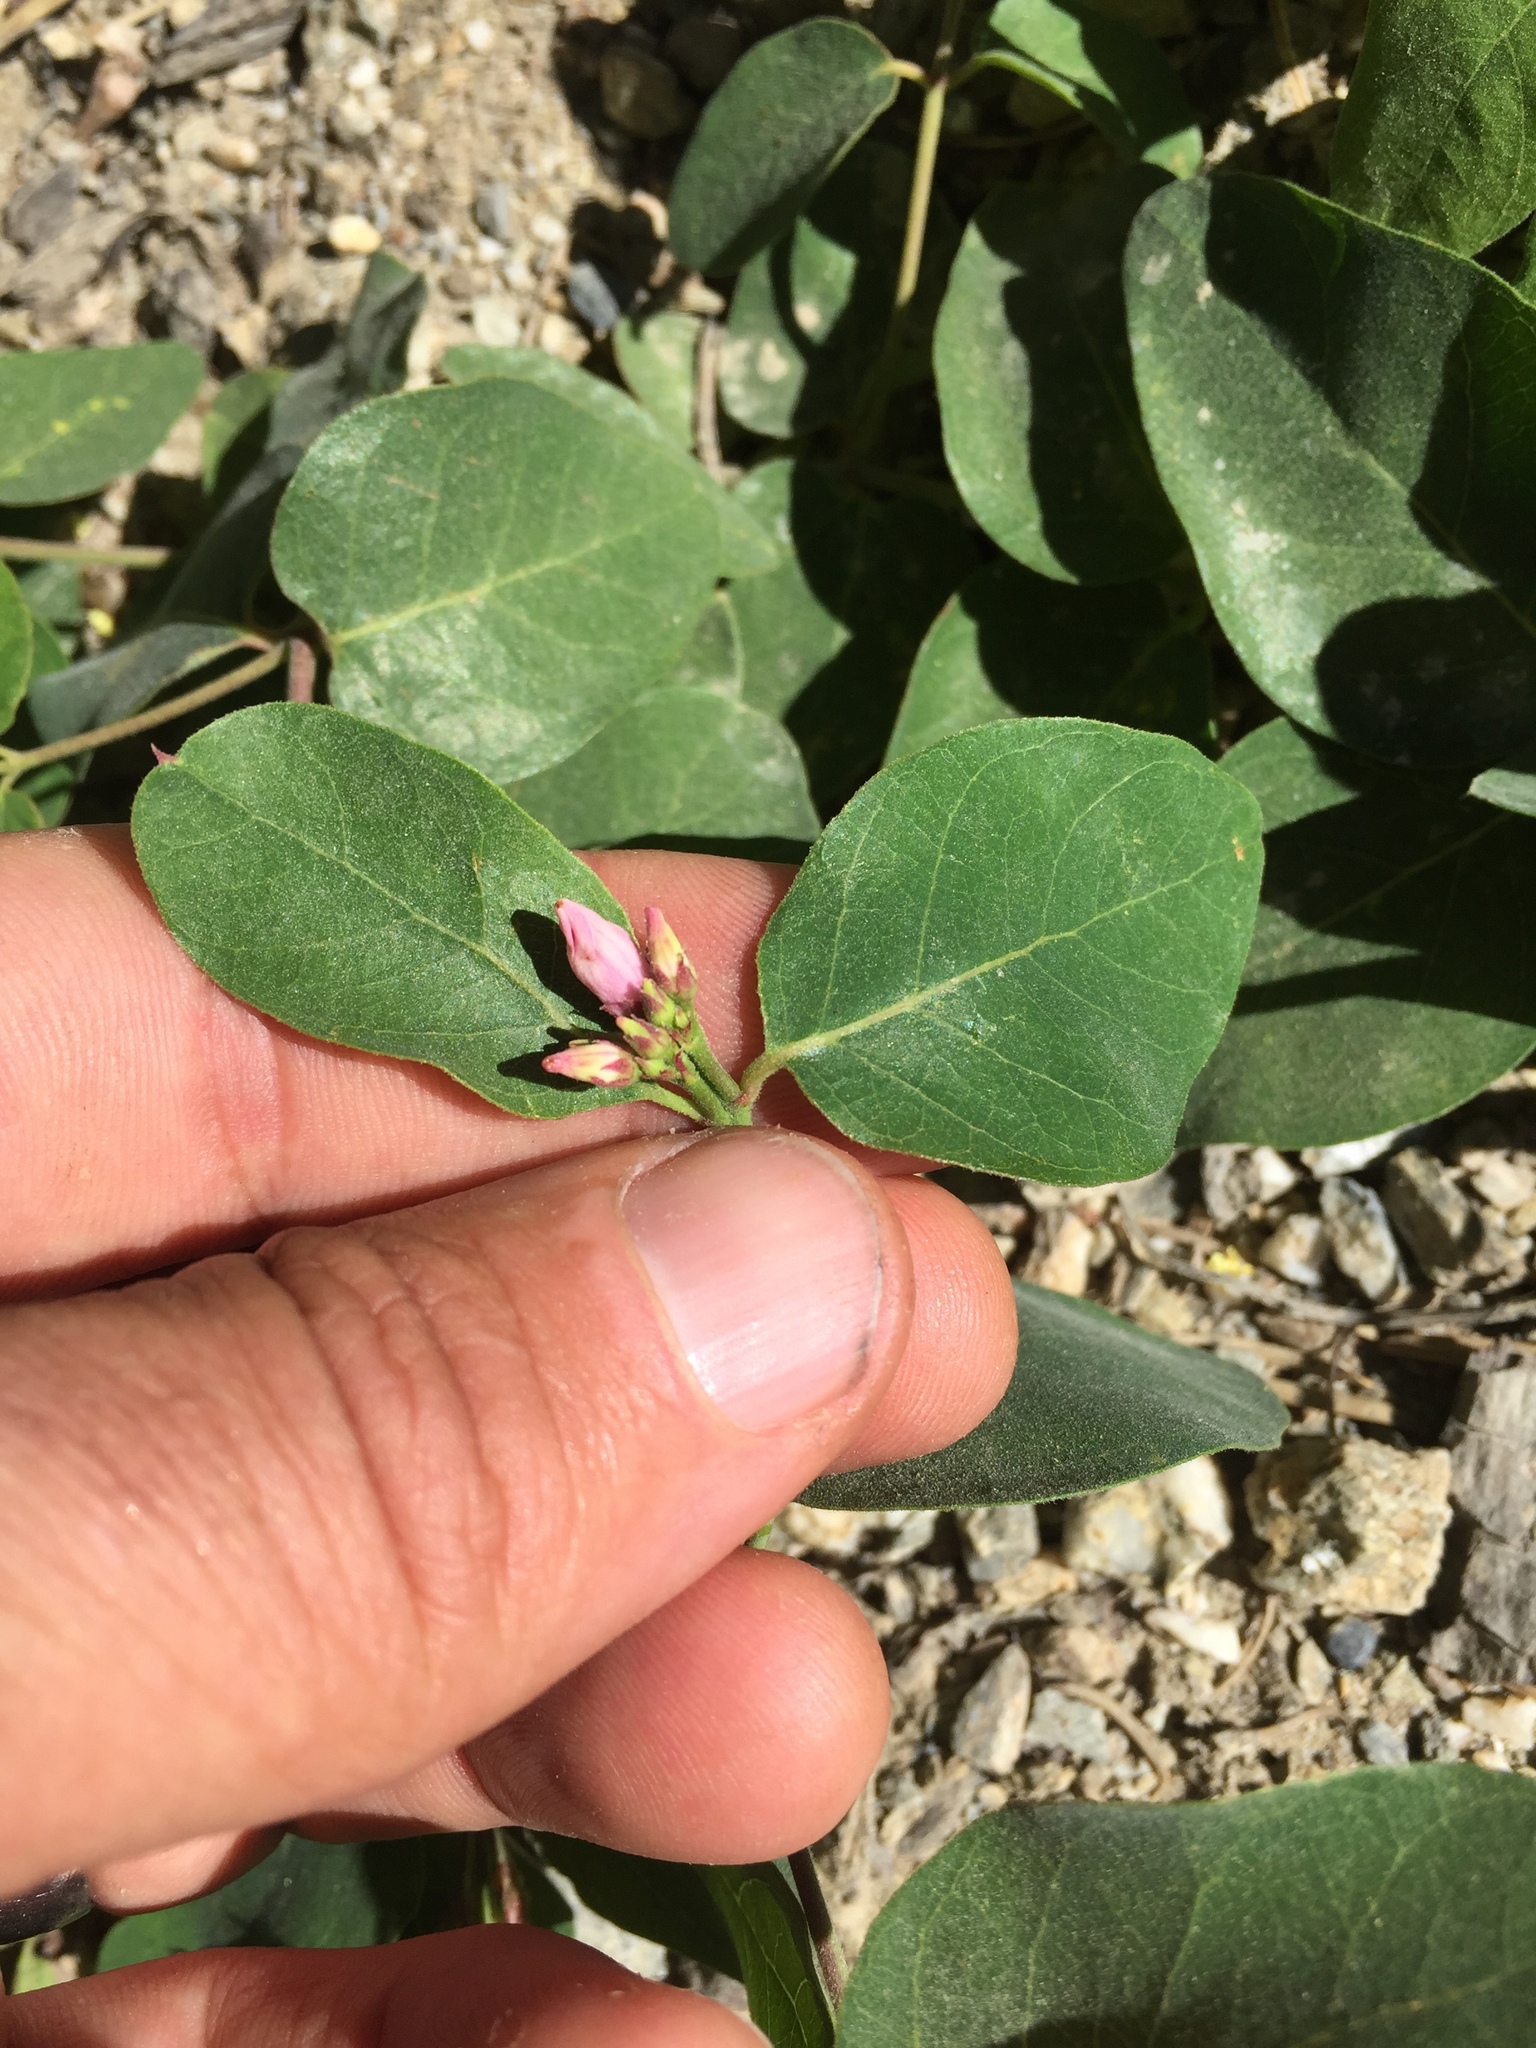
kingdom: Plantae
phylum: Tracheophyta
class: Magnoliopsida
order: Gentianales
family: Apocynaceae
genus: Apocynum
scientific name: Apocynum androsaemifolium
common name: Spreading dogbane
